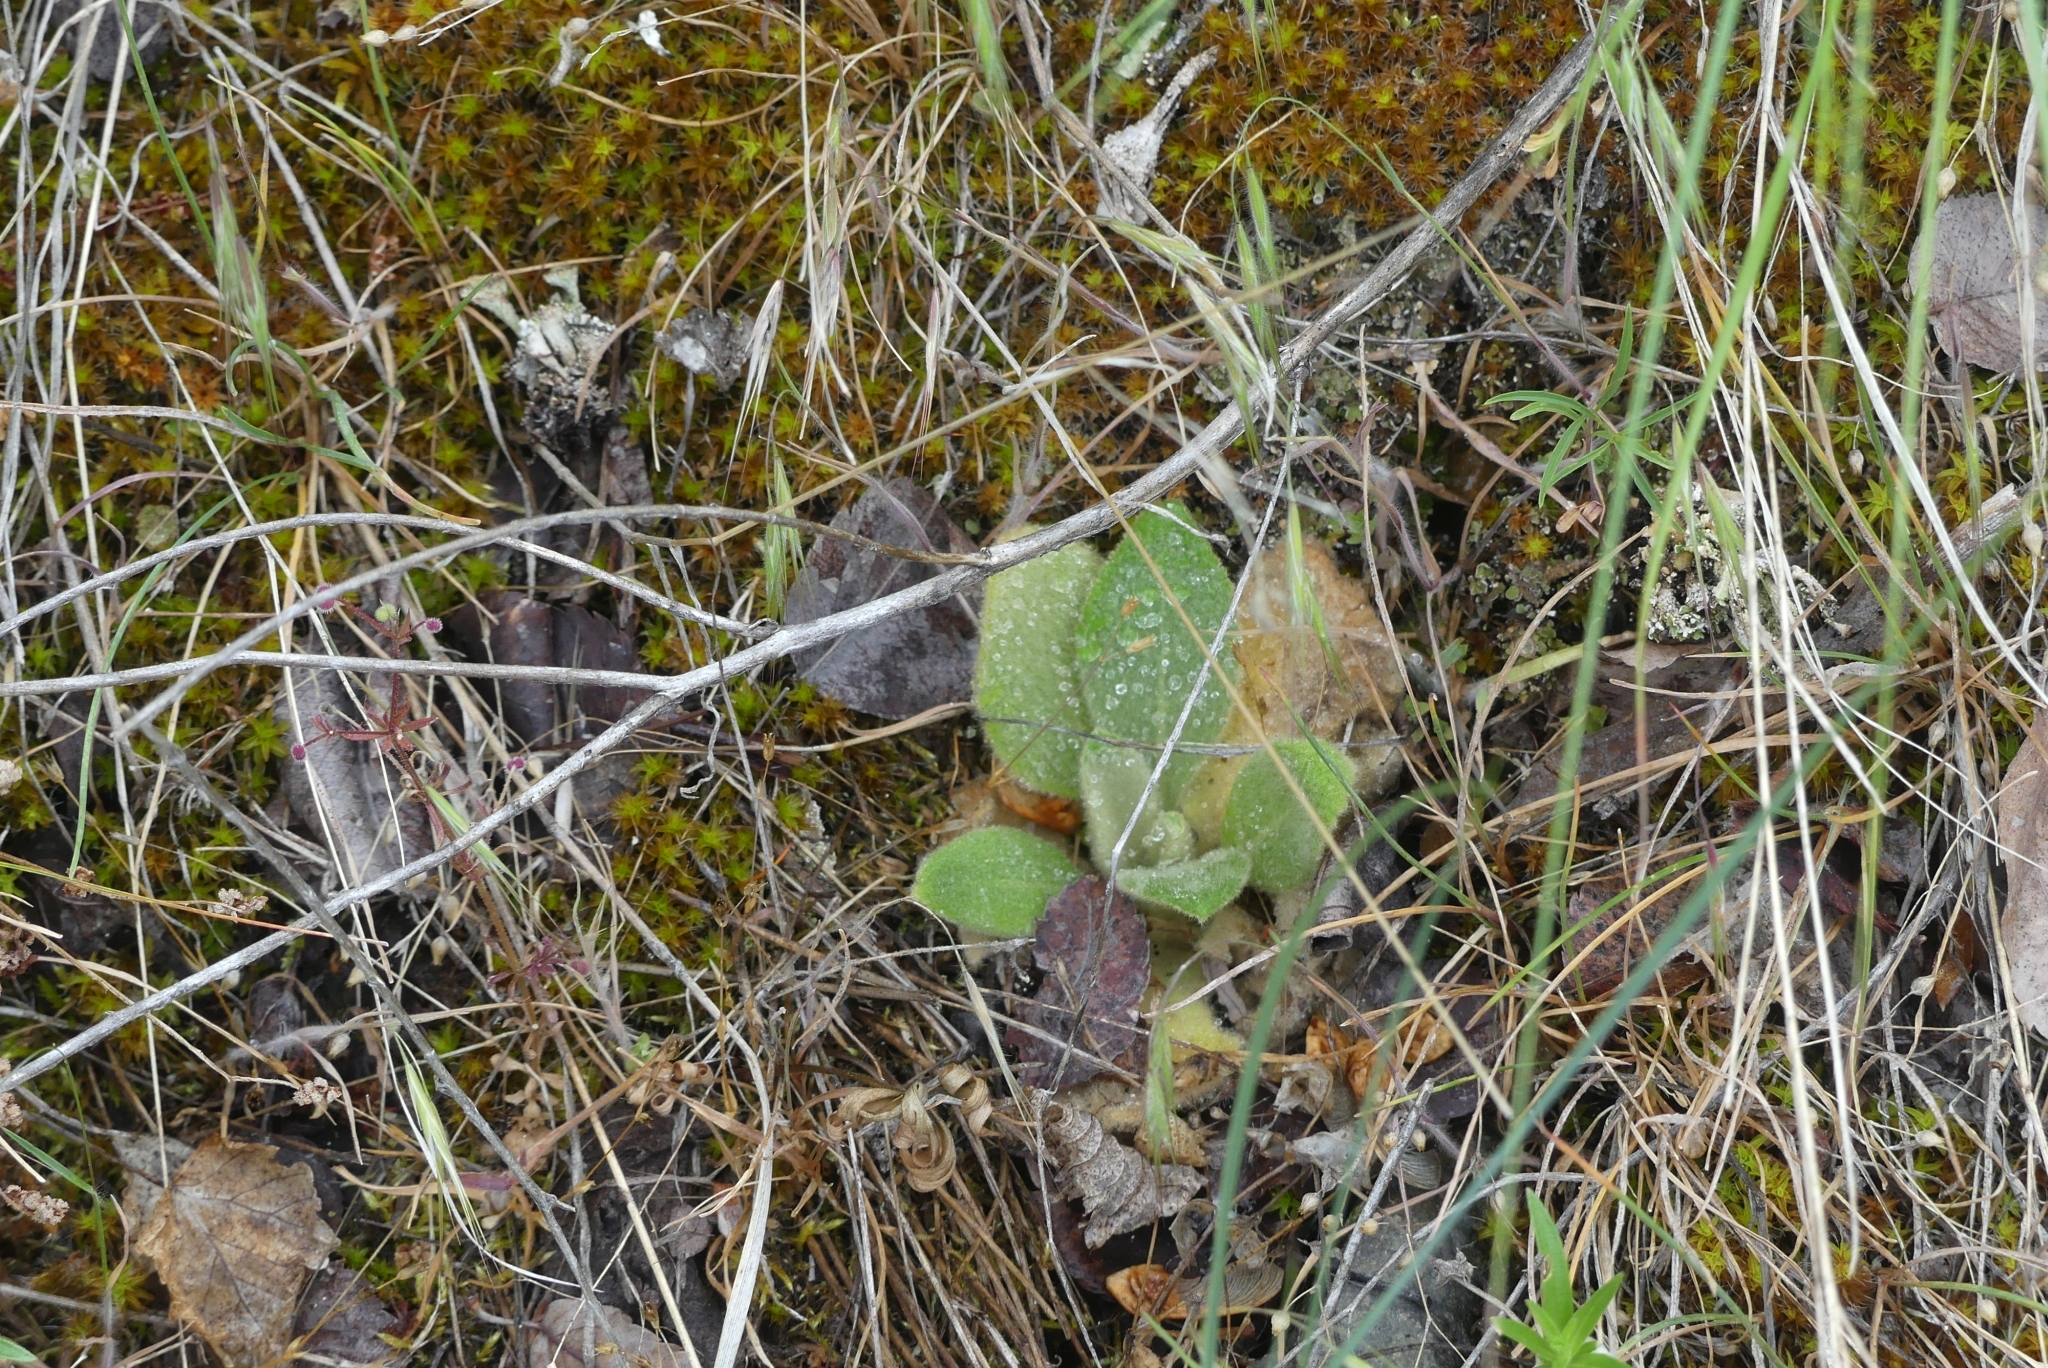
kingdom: Plantae
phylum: Tracheophyta
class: Magnoliopsida
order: Lamiales
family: Scrophulariaceae
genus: Verbascum
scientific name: Verbascum thapsus
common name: Common mullein
